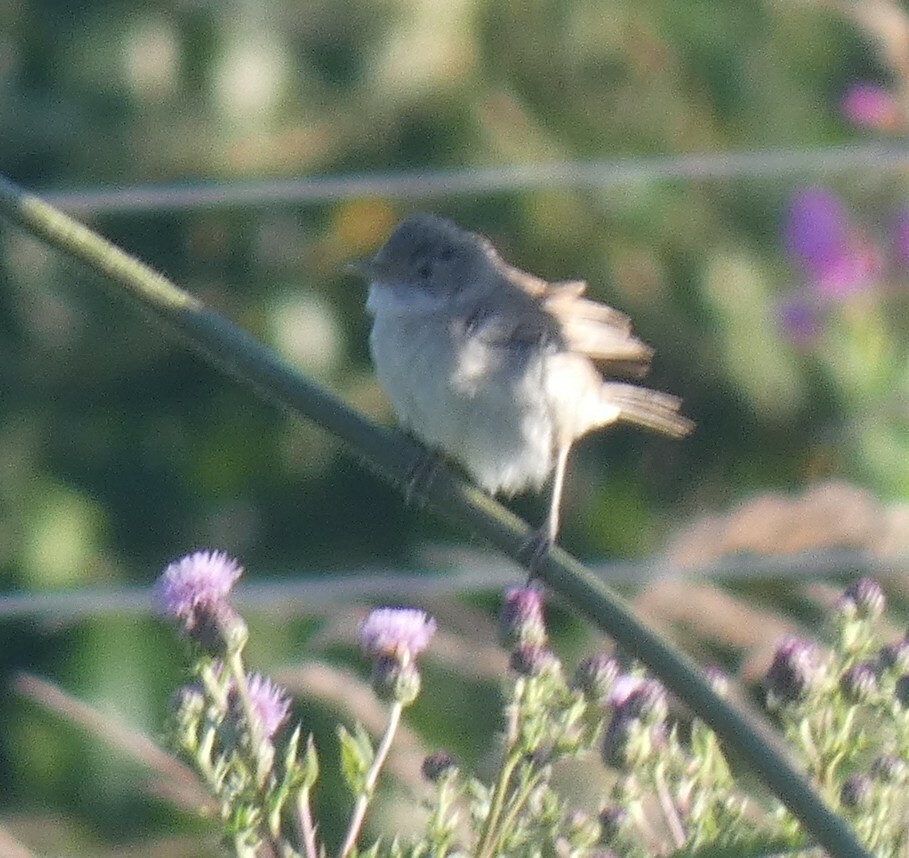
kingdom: Animalia
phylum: Chordata
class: Aves
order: Passeriformes
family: Sylviidae
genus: Sylvia
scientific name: Sylvia communis
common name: Common whitethroat
